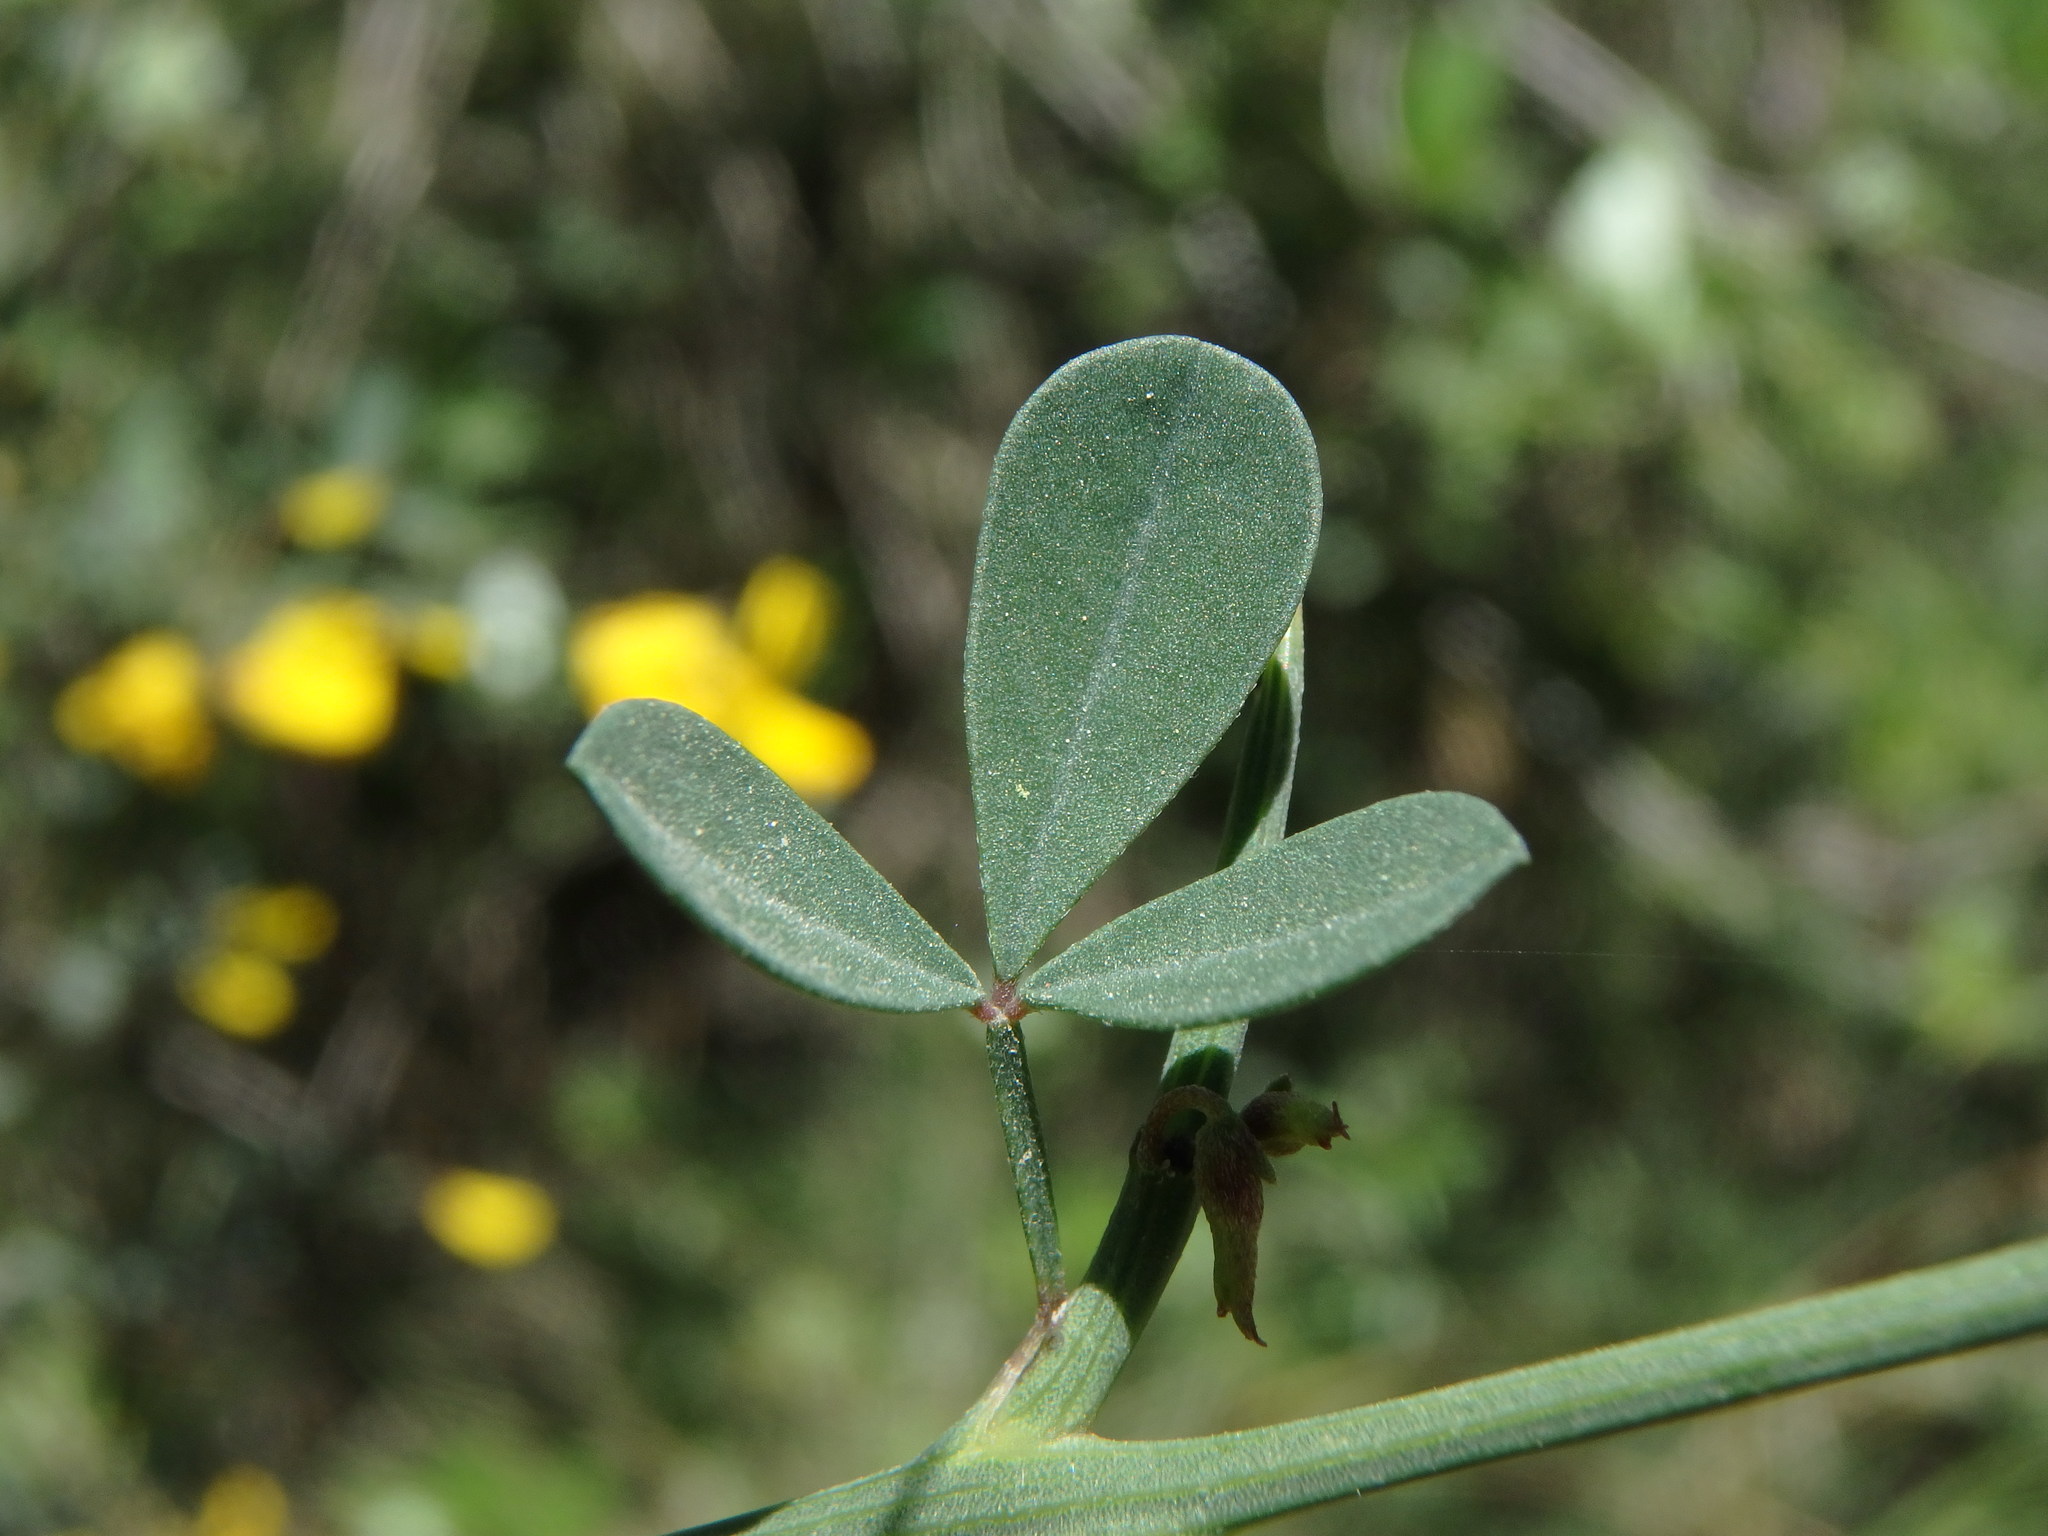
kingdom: Plantae
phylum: Tracheophyta
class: Magnoliopsida
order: Fabales
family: Fabaceae
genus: Calicotome
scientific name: Calicotome spinosa
